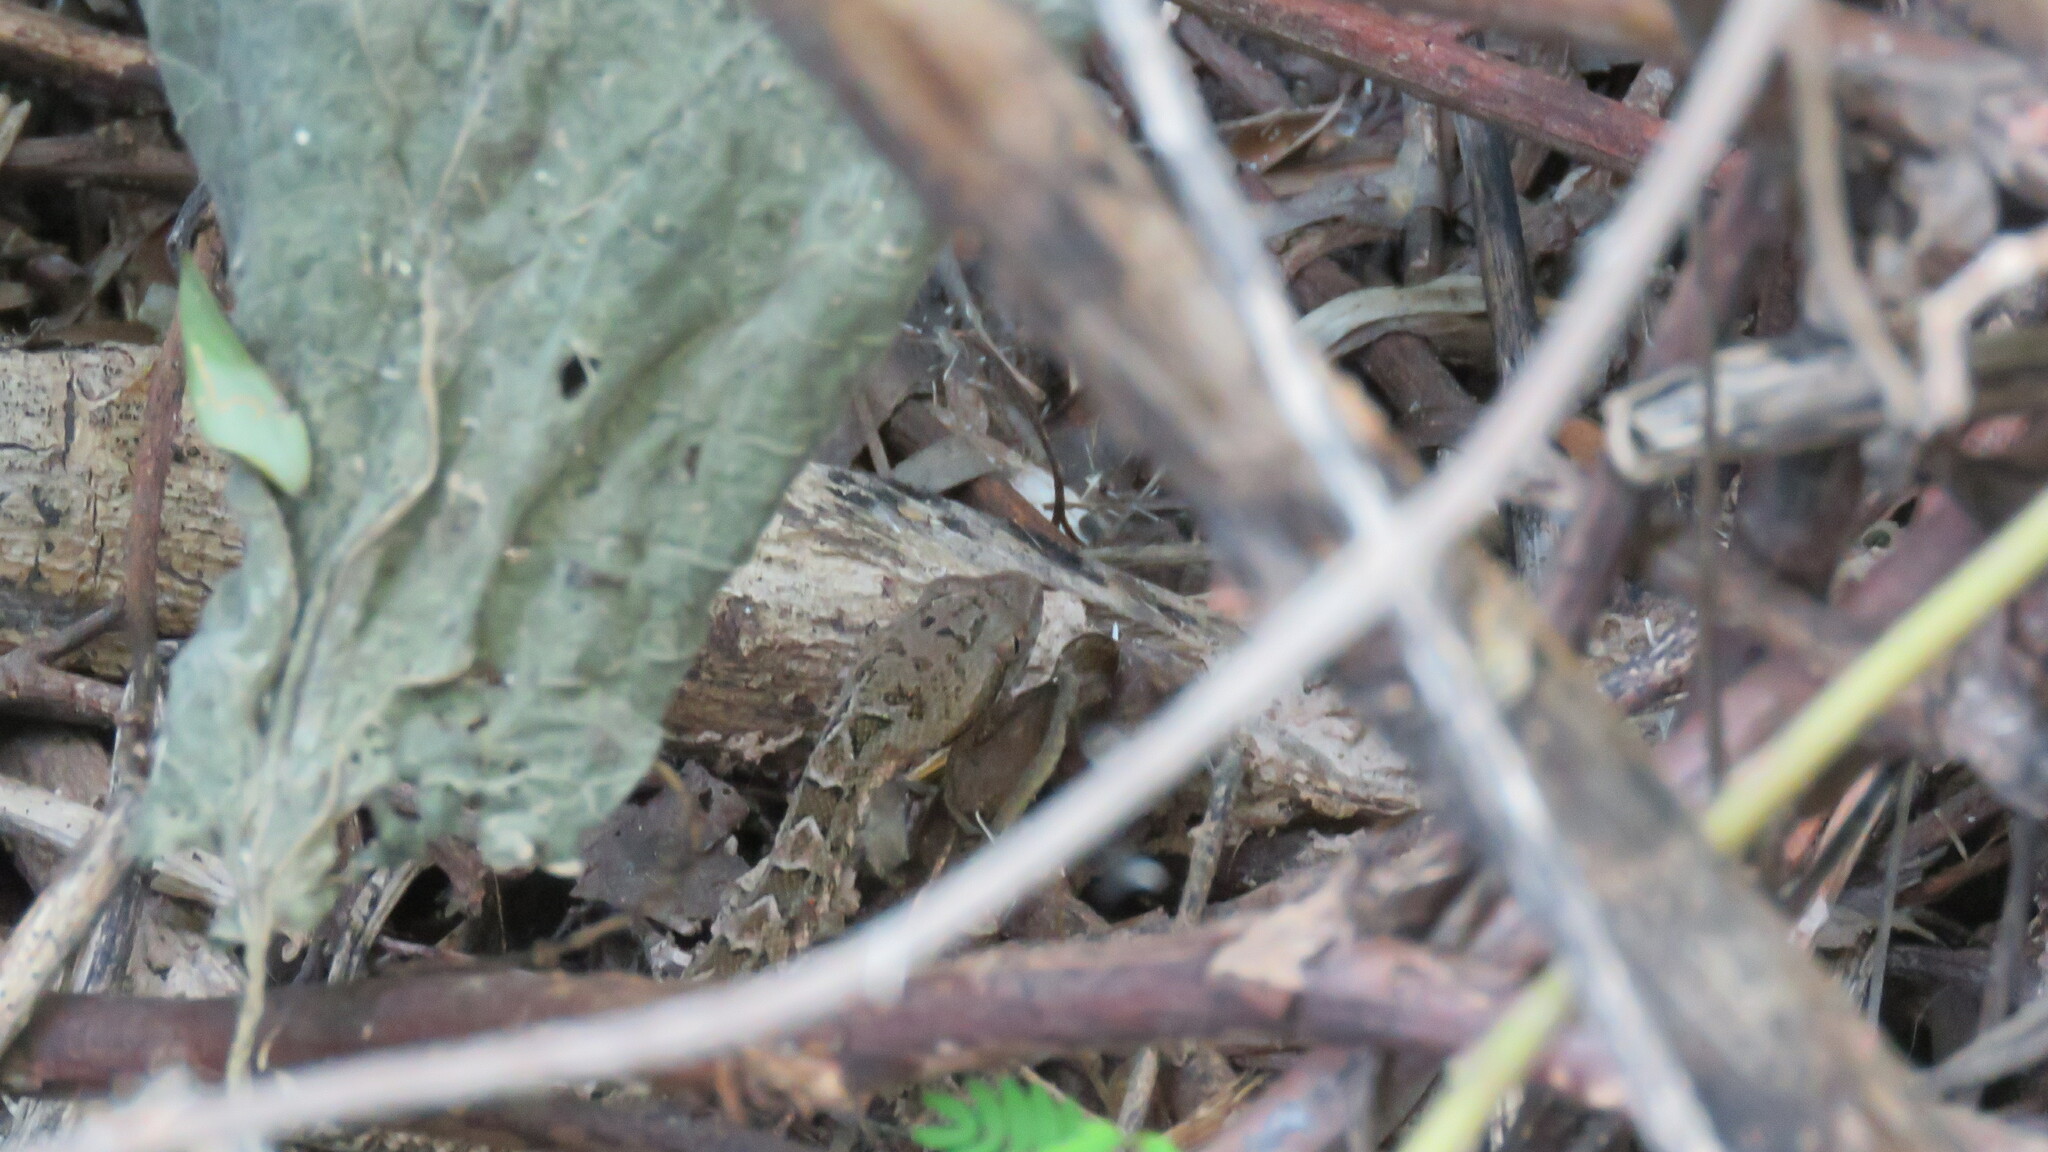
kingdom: Animalia
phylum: Chordata
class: Squamata
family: Viperidae
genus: Bothrops
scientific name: Bothrops diporus
